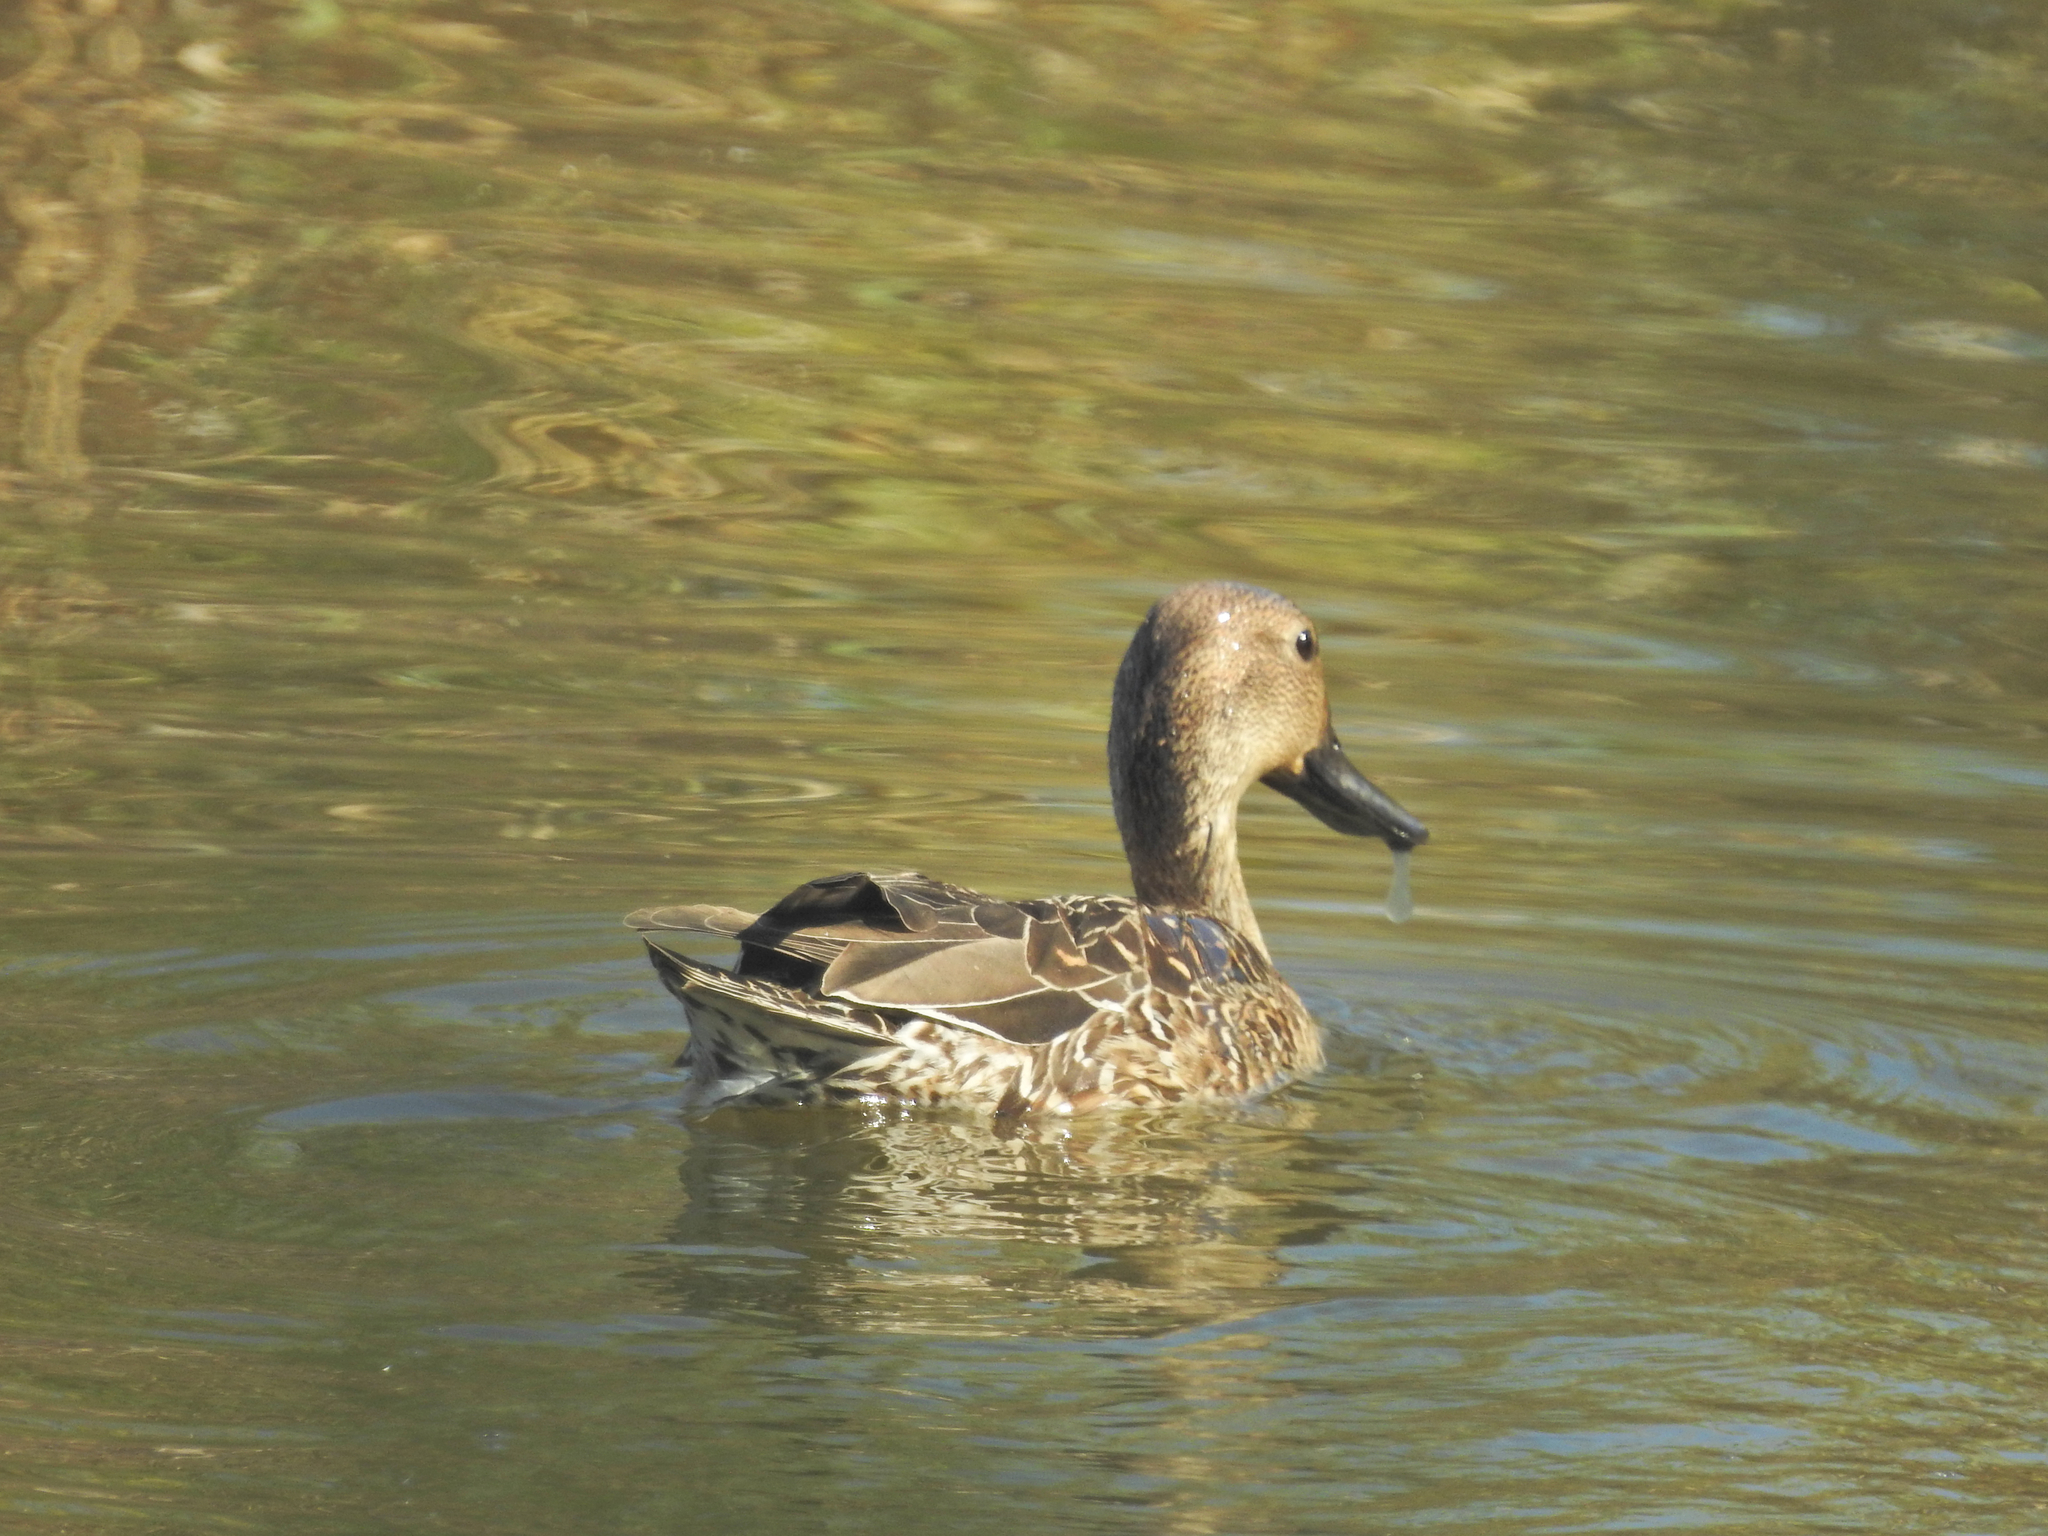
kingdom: Animalia
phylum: Chordata
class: Aves
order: Anseriformes
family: Anatidae
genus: Anas
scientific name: Anas acuta
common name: Northern pintail
